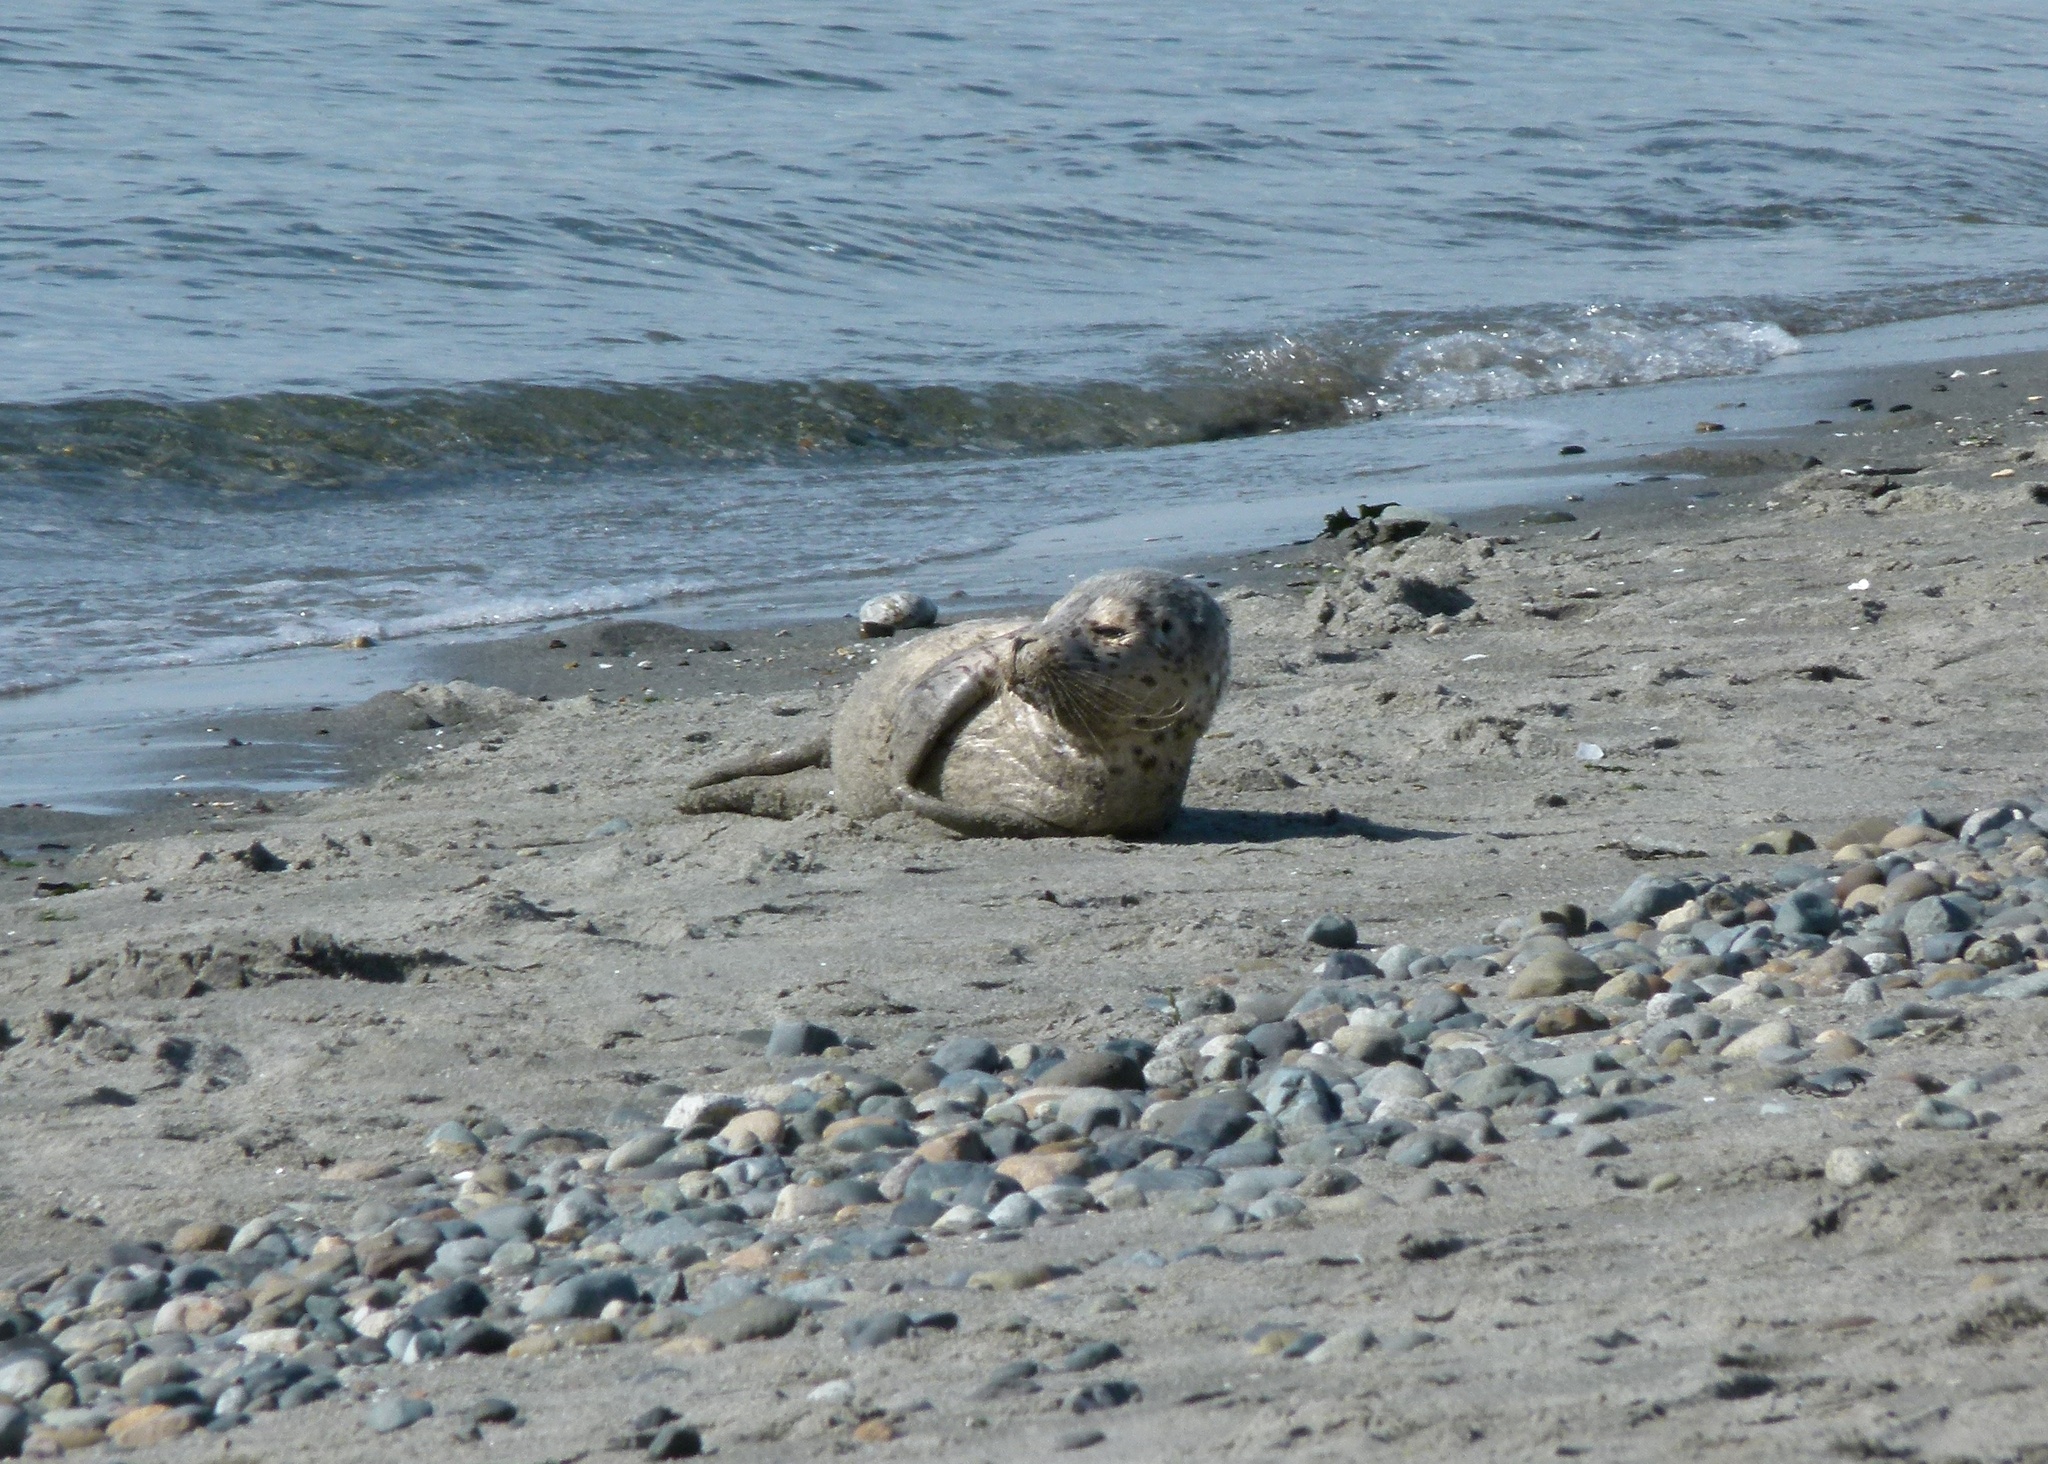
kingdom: Animalia
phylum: Chordata
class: Mammalia
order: Carnivora
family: Phocidae
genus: Phoca
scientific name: Phoca vitulina
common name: Harbor seal
